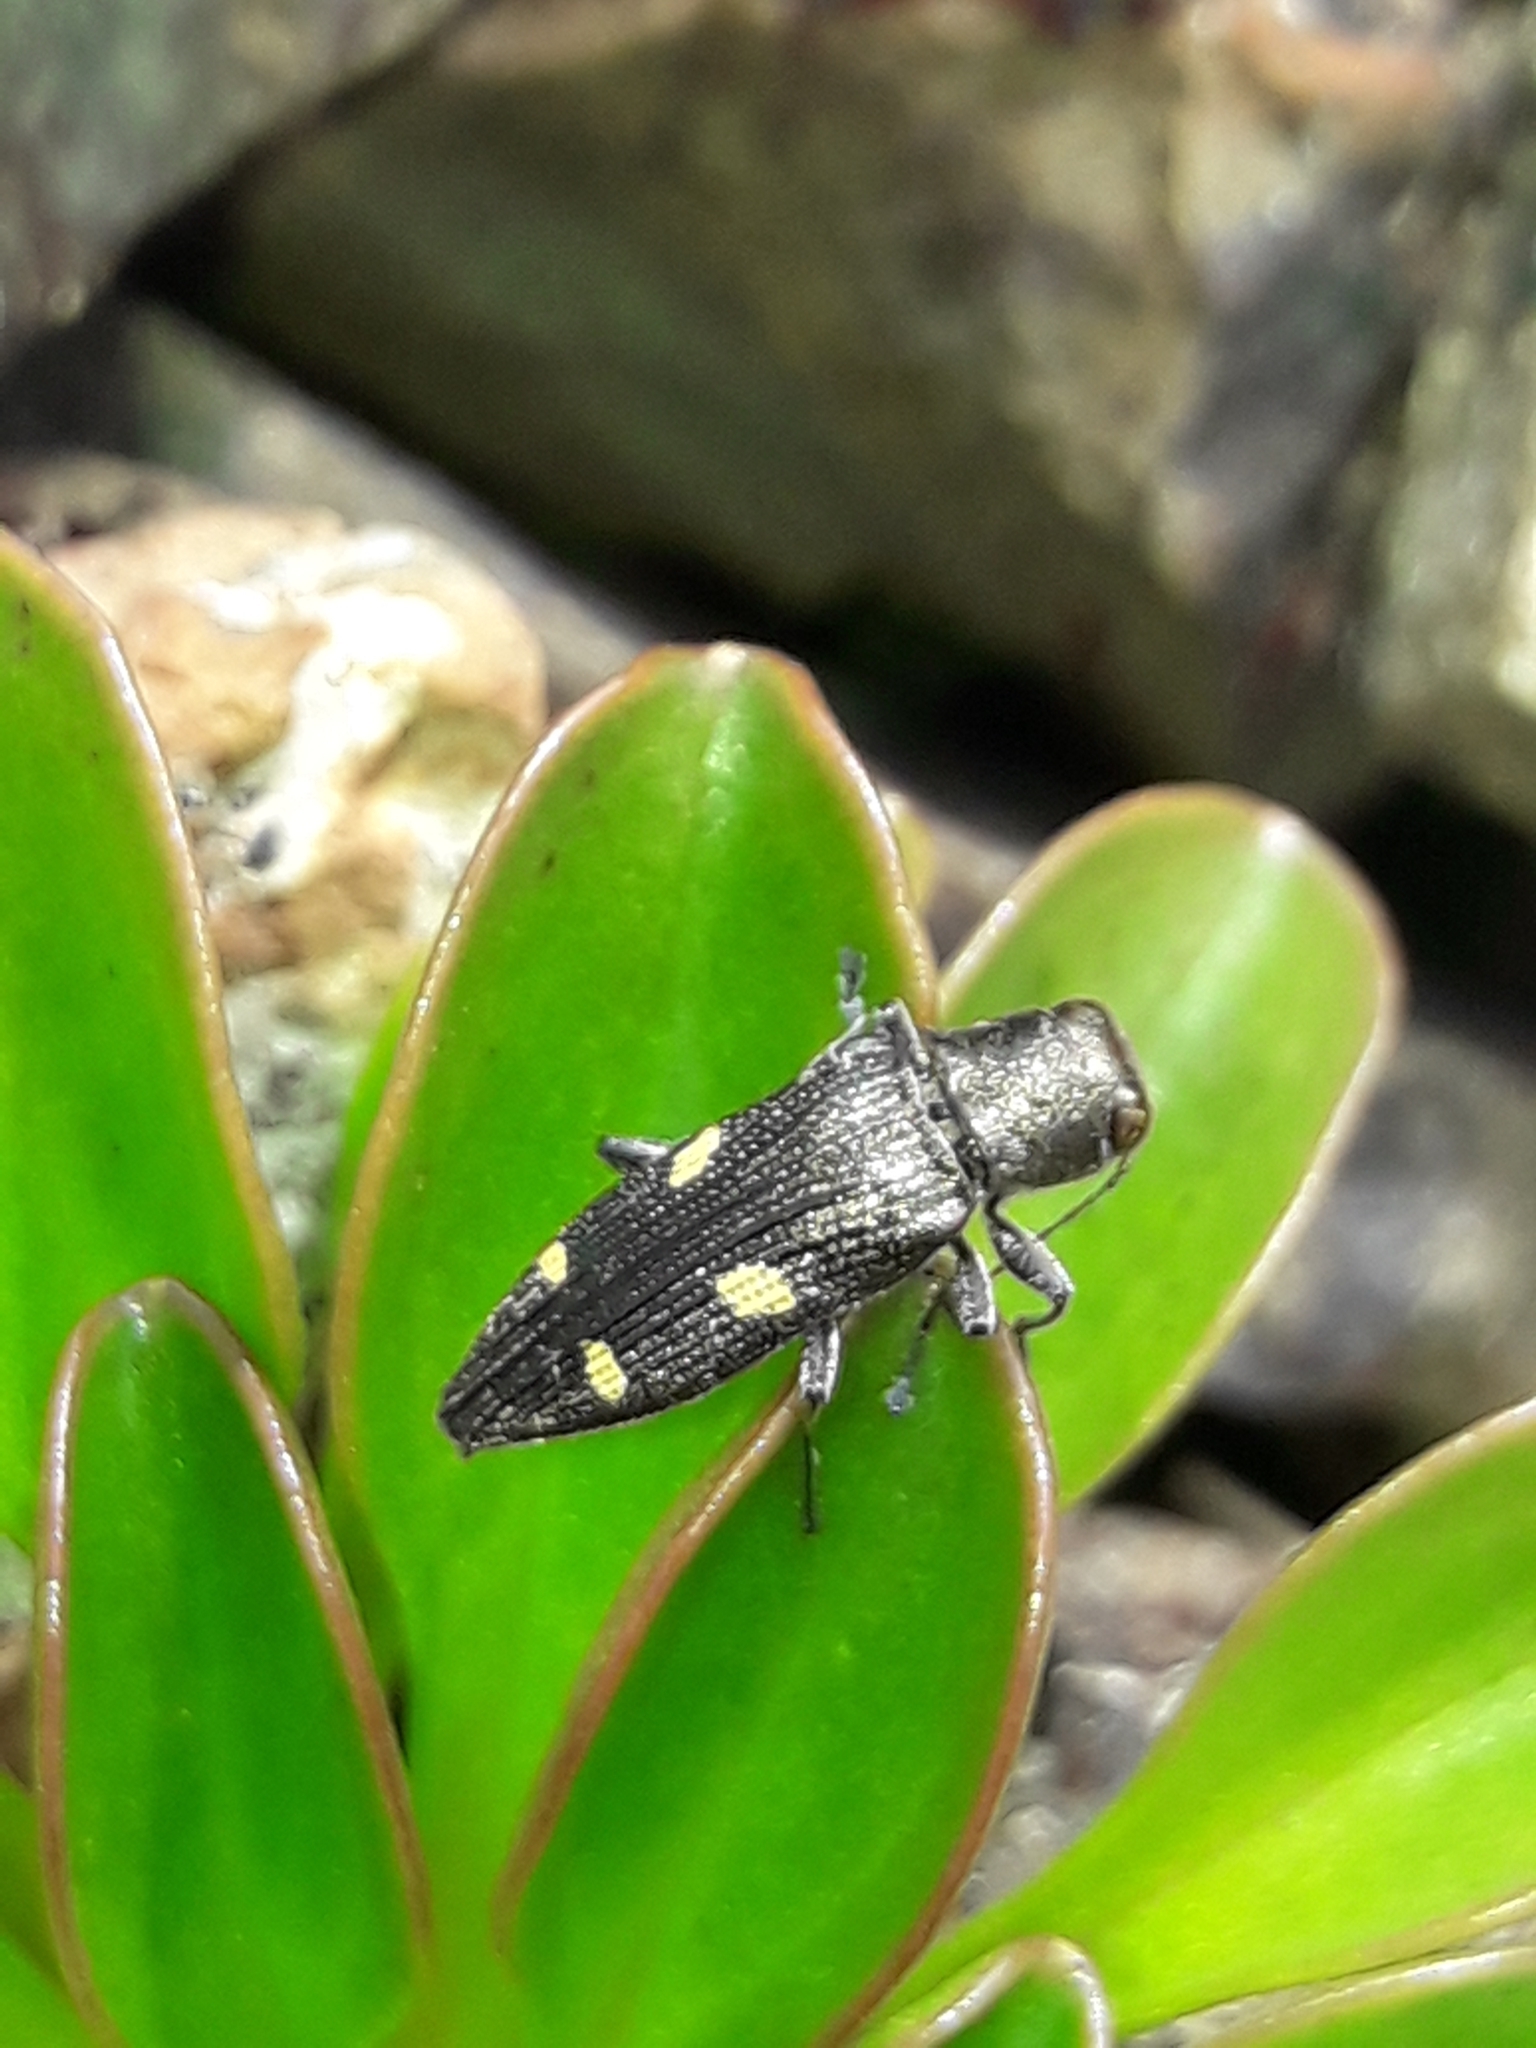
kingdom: Animalia
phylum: Arthropoda
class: Insecta
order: Coleoptera
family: Buprestidae
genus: Nascioides
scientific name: Nascioides enysi
